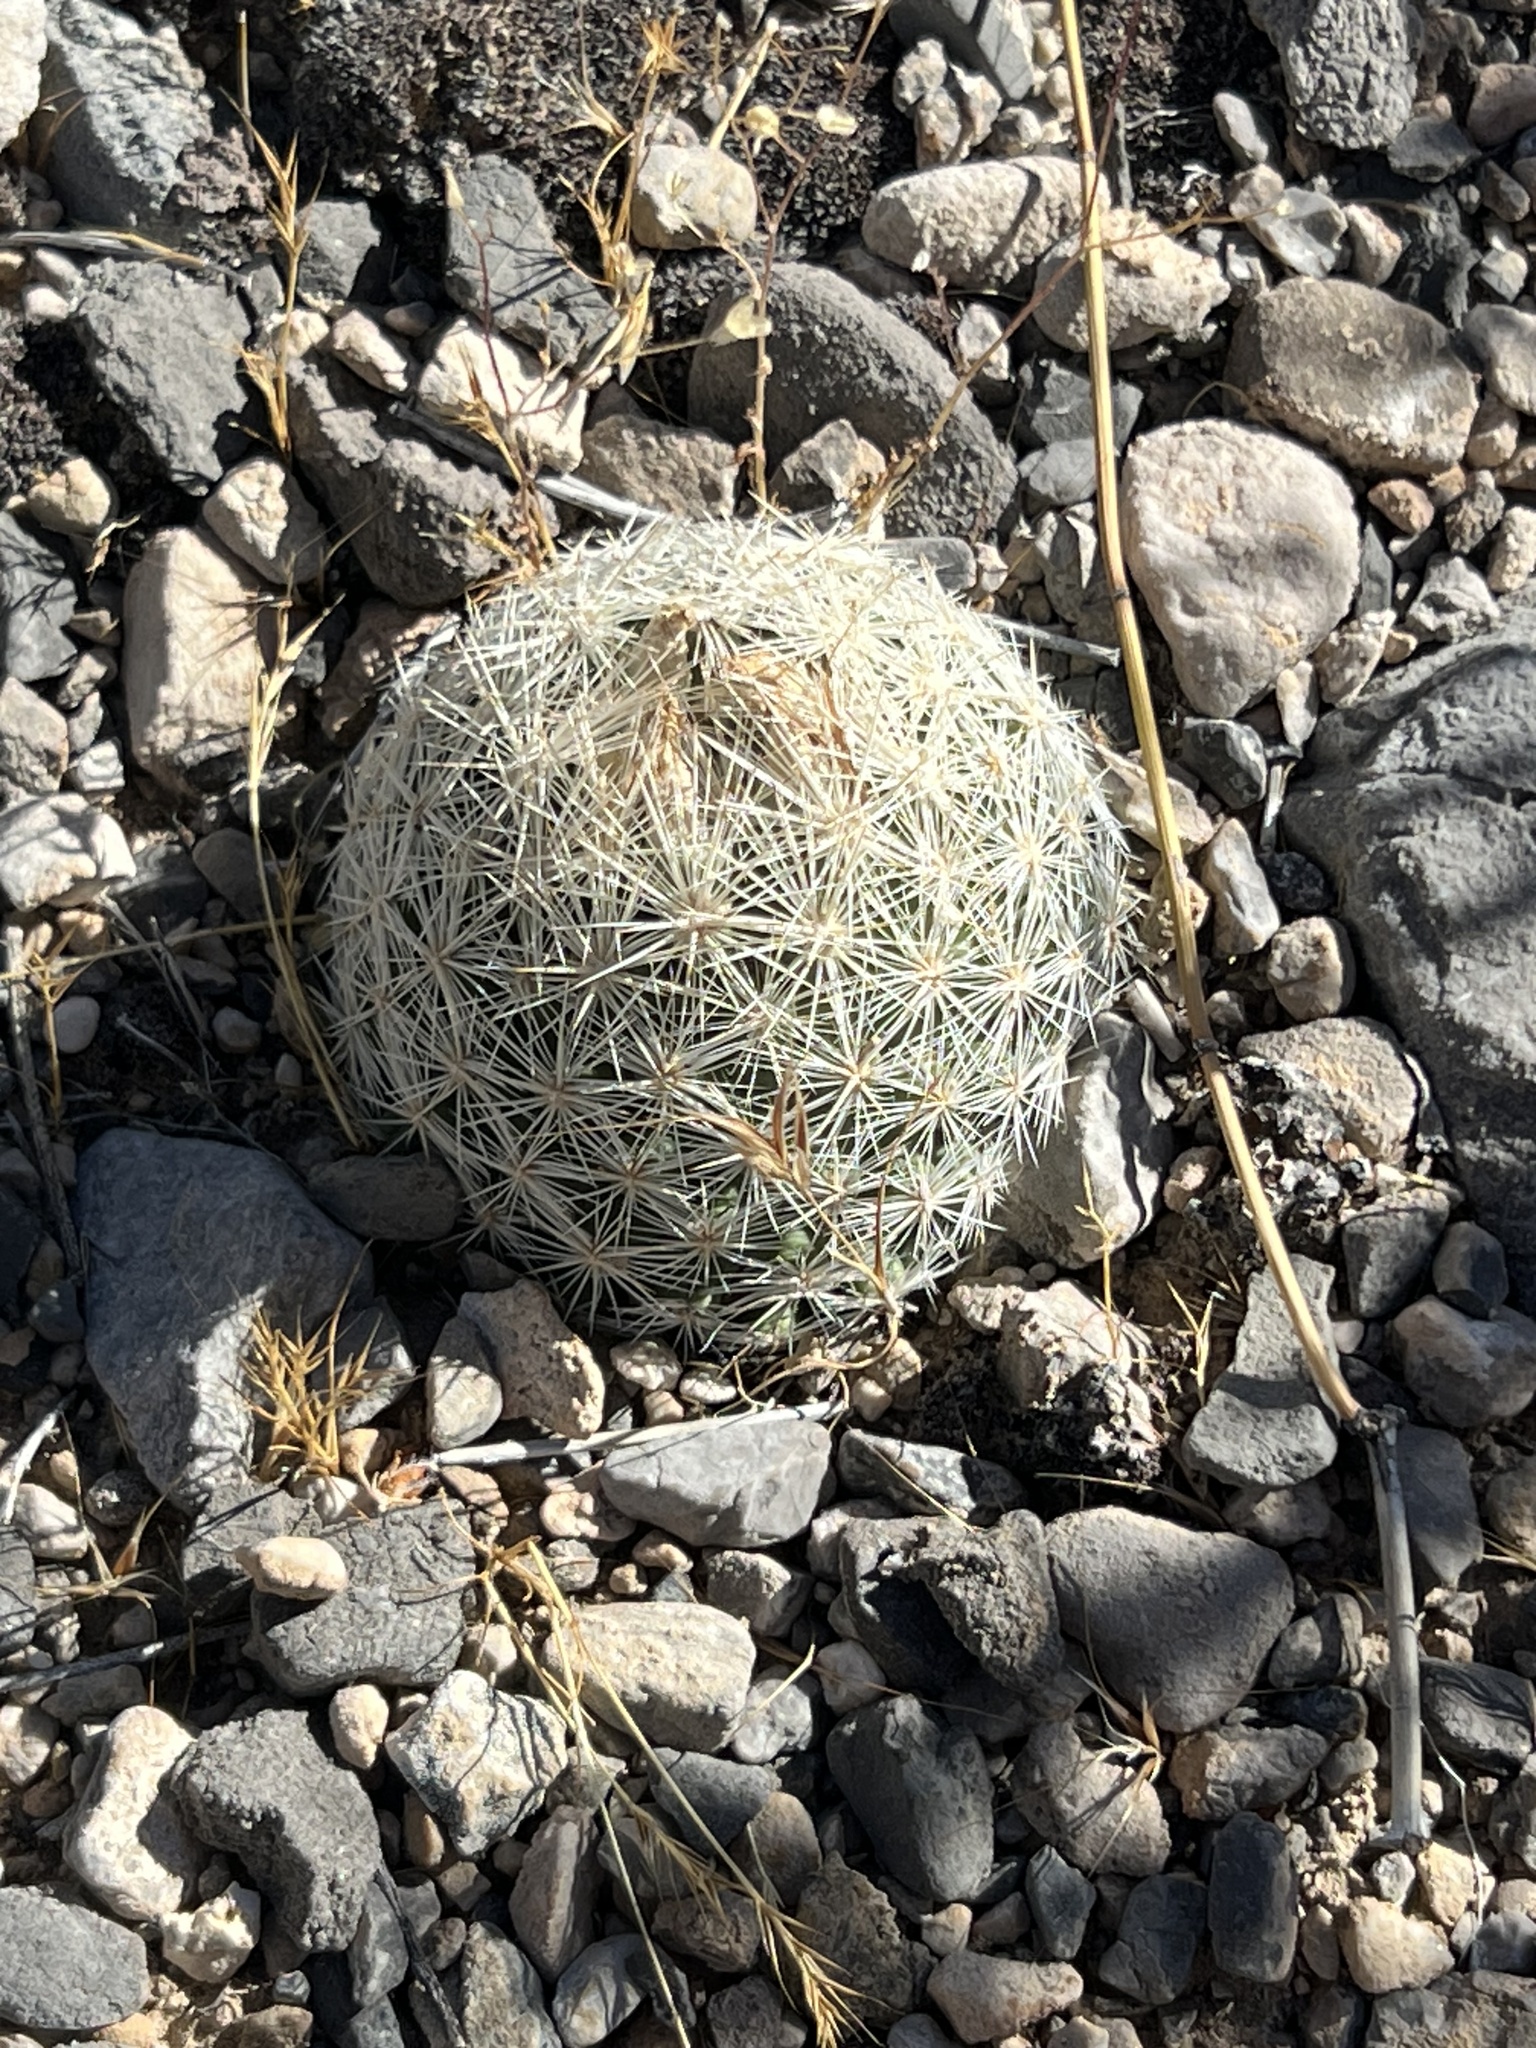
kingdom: Plantae
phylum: Tracheophyta
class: Magnoliopsida
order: Caryophyllales
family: Cactaceae
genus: Pelecyphora
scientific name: Pelecyphora dasyacantha
